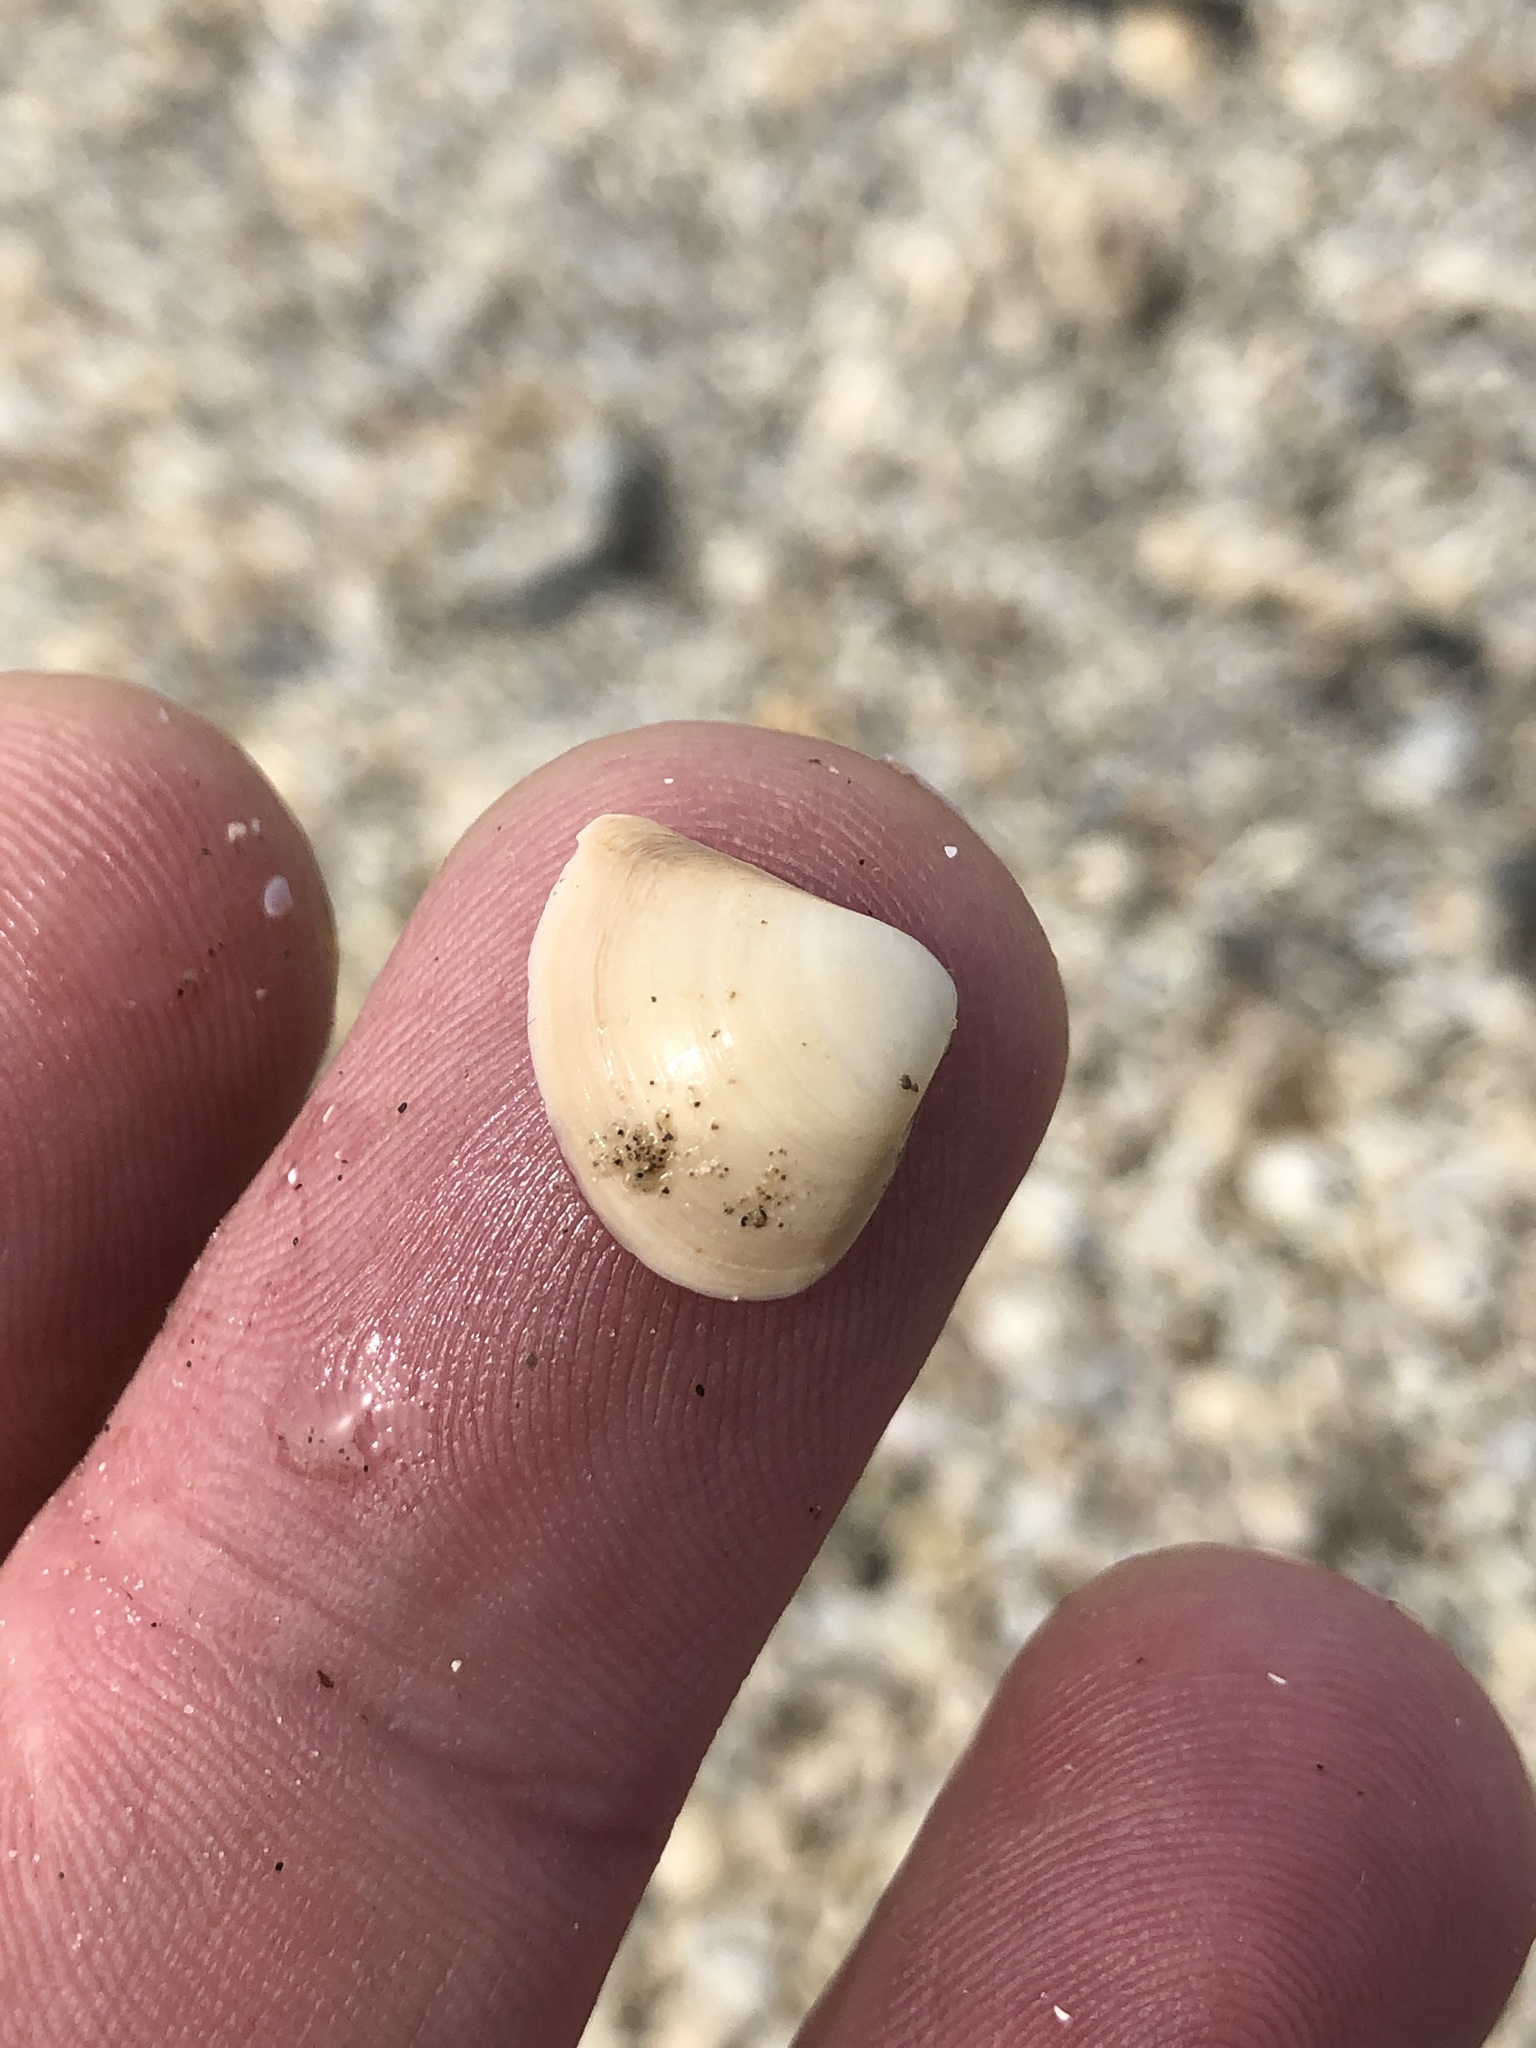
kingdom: Animalia
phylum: Mollusca
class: Bivalvia
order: Venerida
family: Mactridae
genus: Mulinia
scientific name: Mulinia lateralis
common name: Dwarf surfclam
